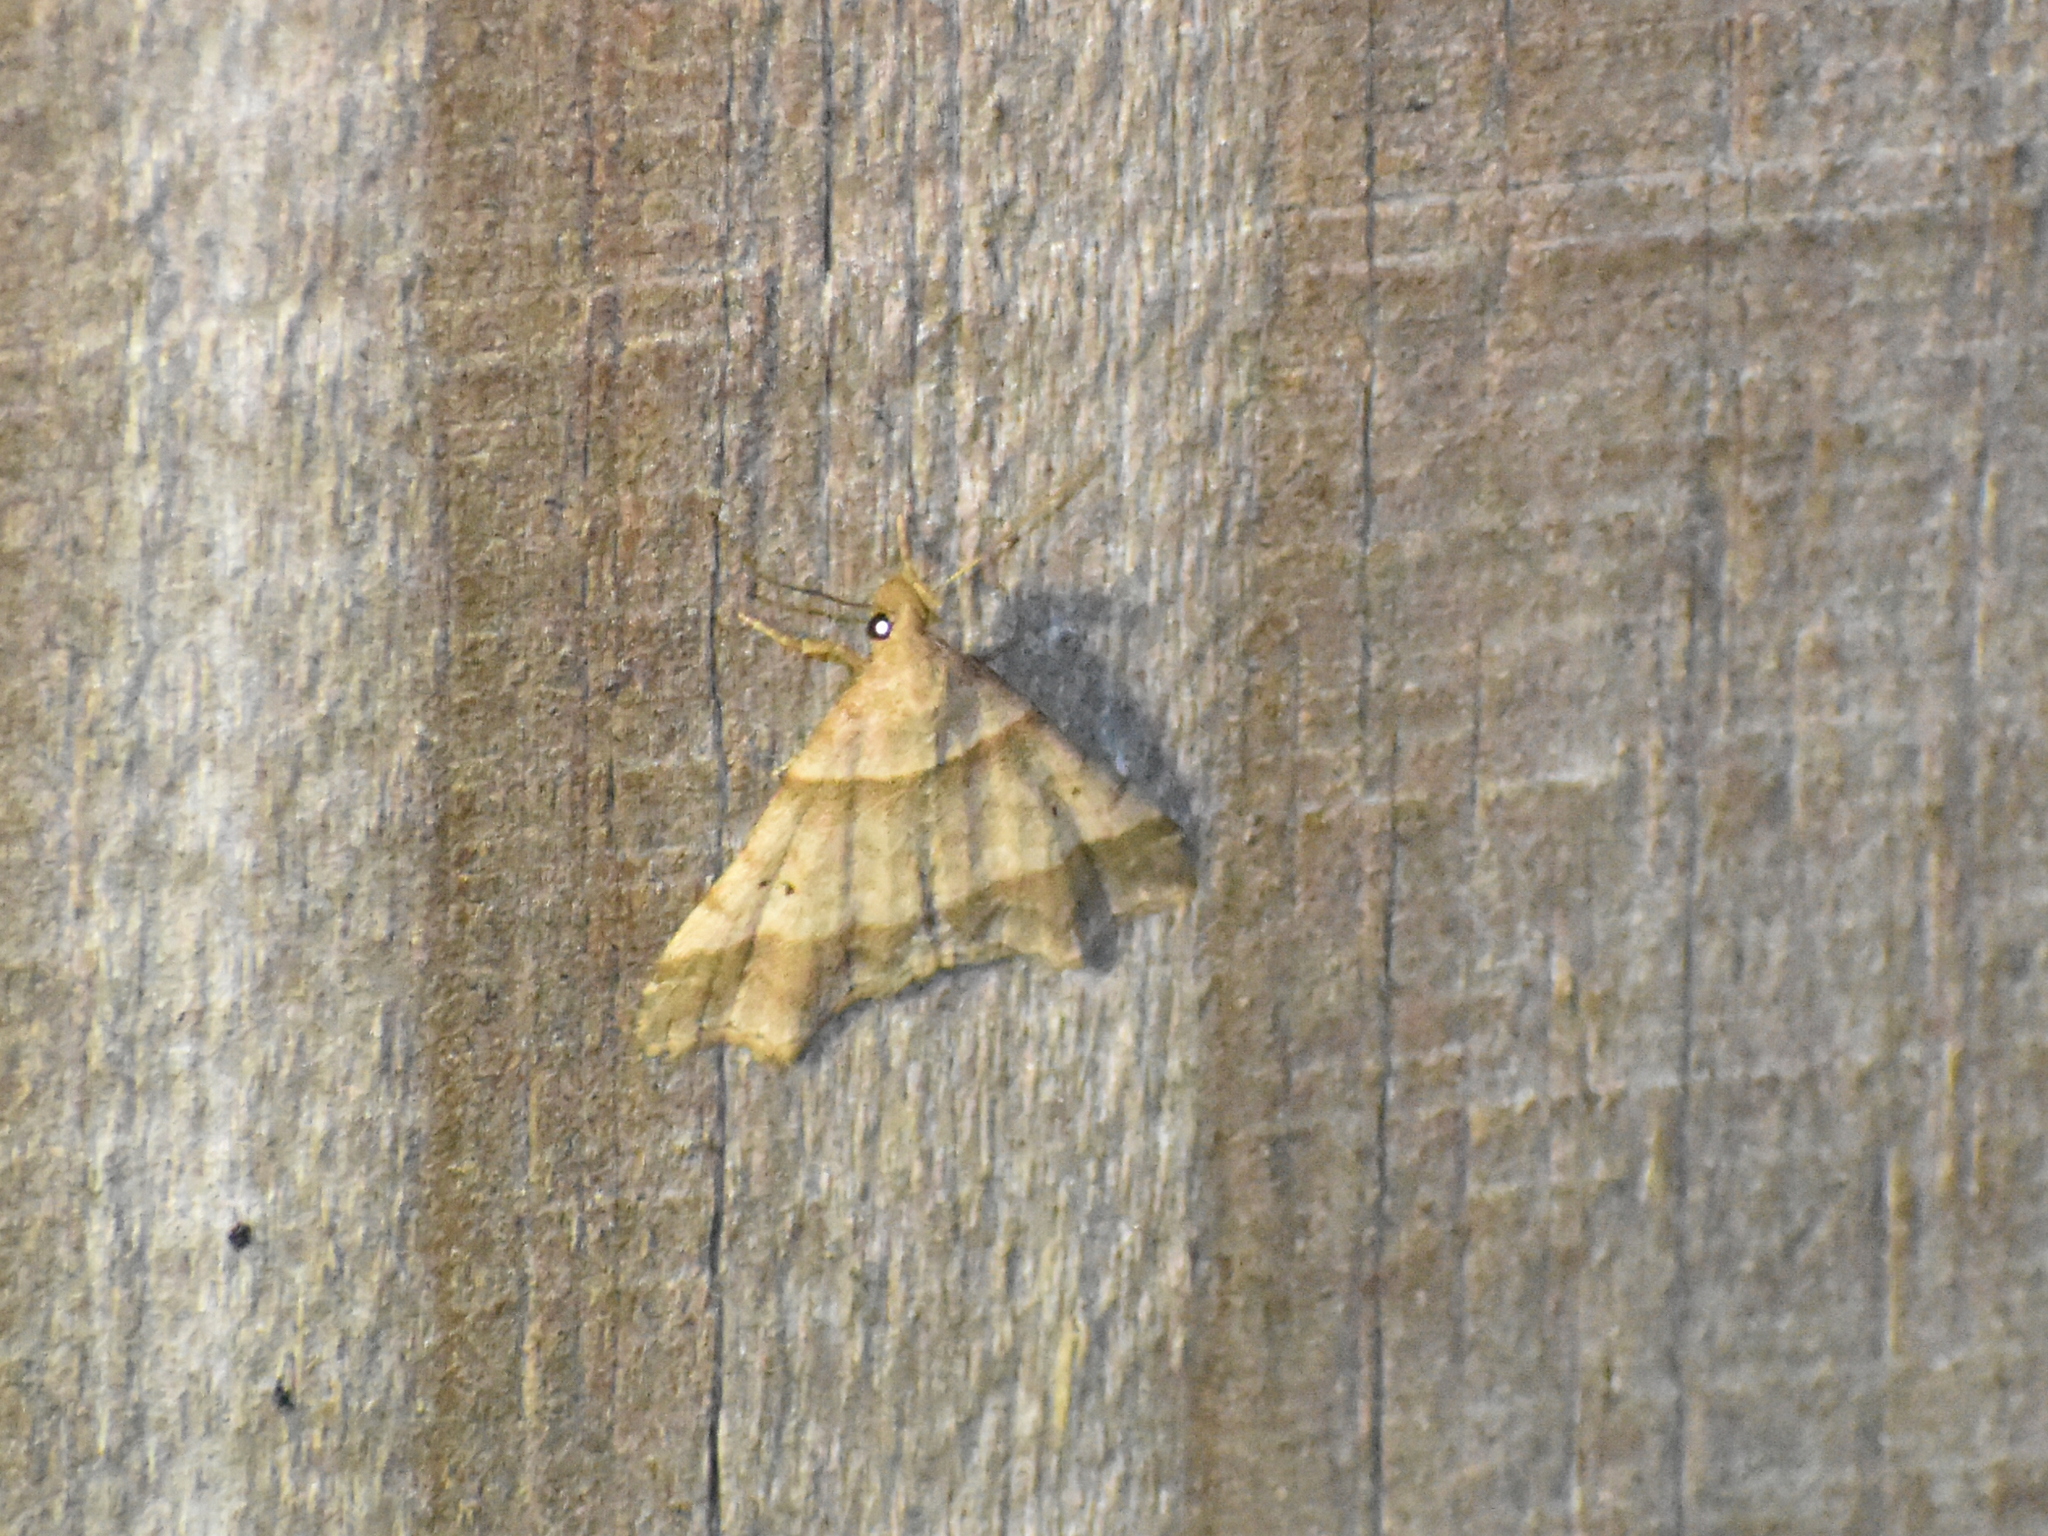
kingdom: Animalia
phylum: Arthropoda
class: Insecta
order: Lepidoptera
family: Erebidae
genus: Phaeolita
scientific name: Phaeolita pyramusalis
